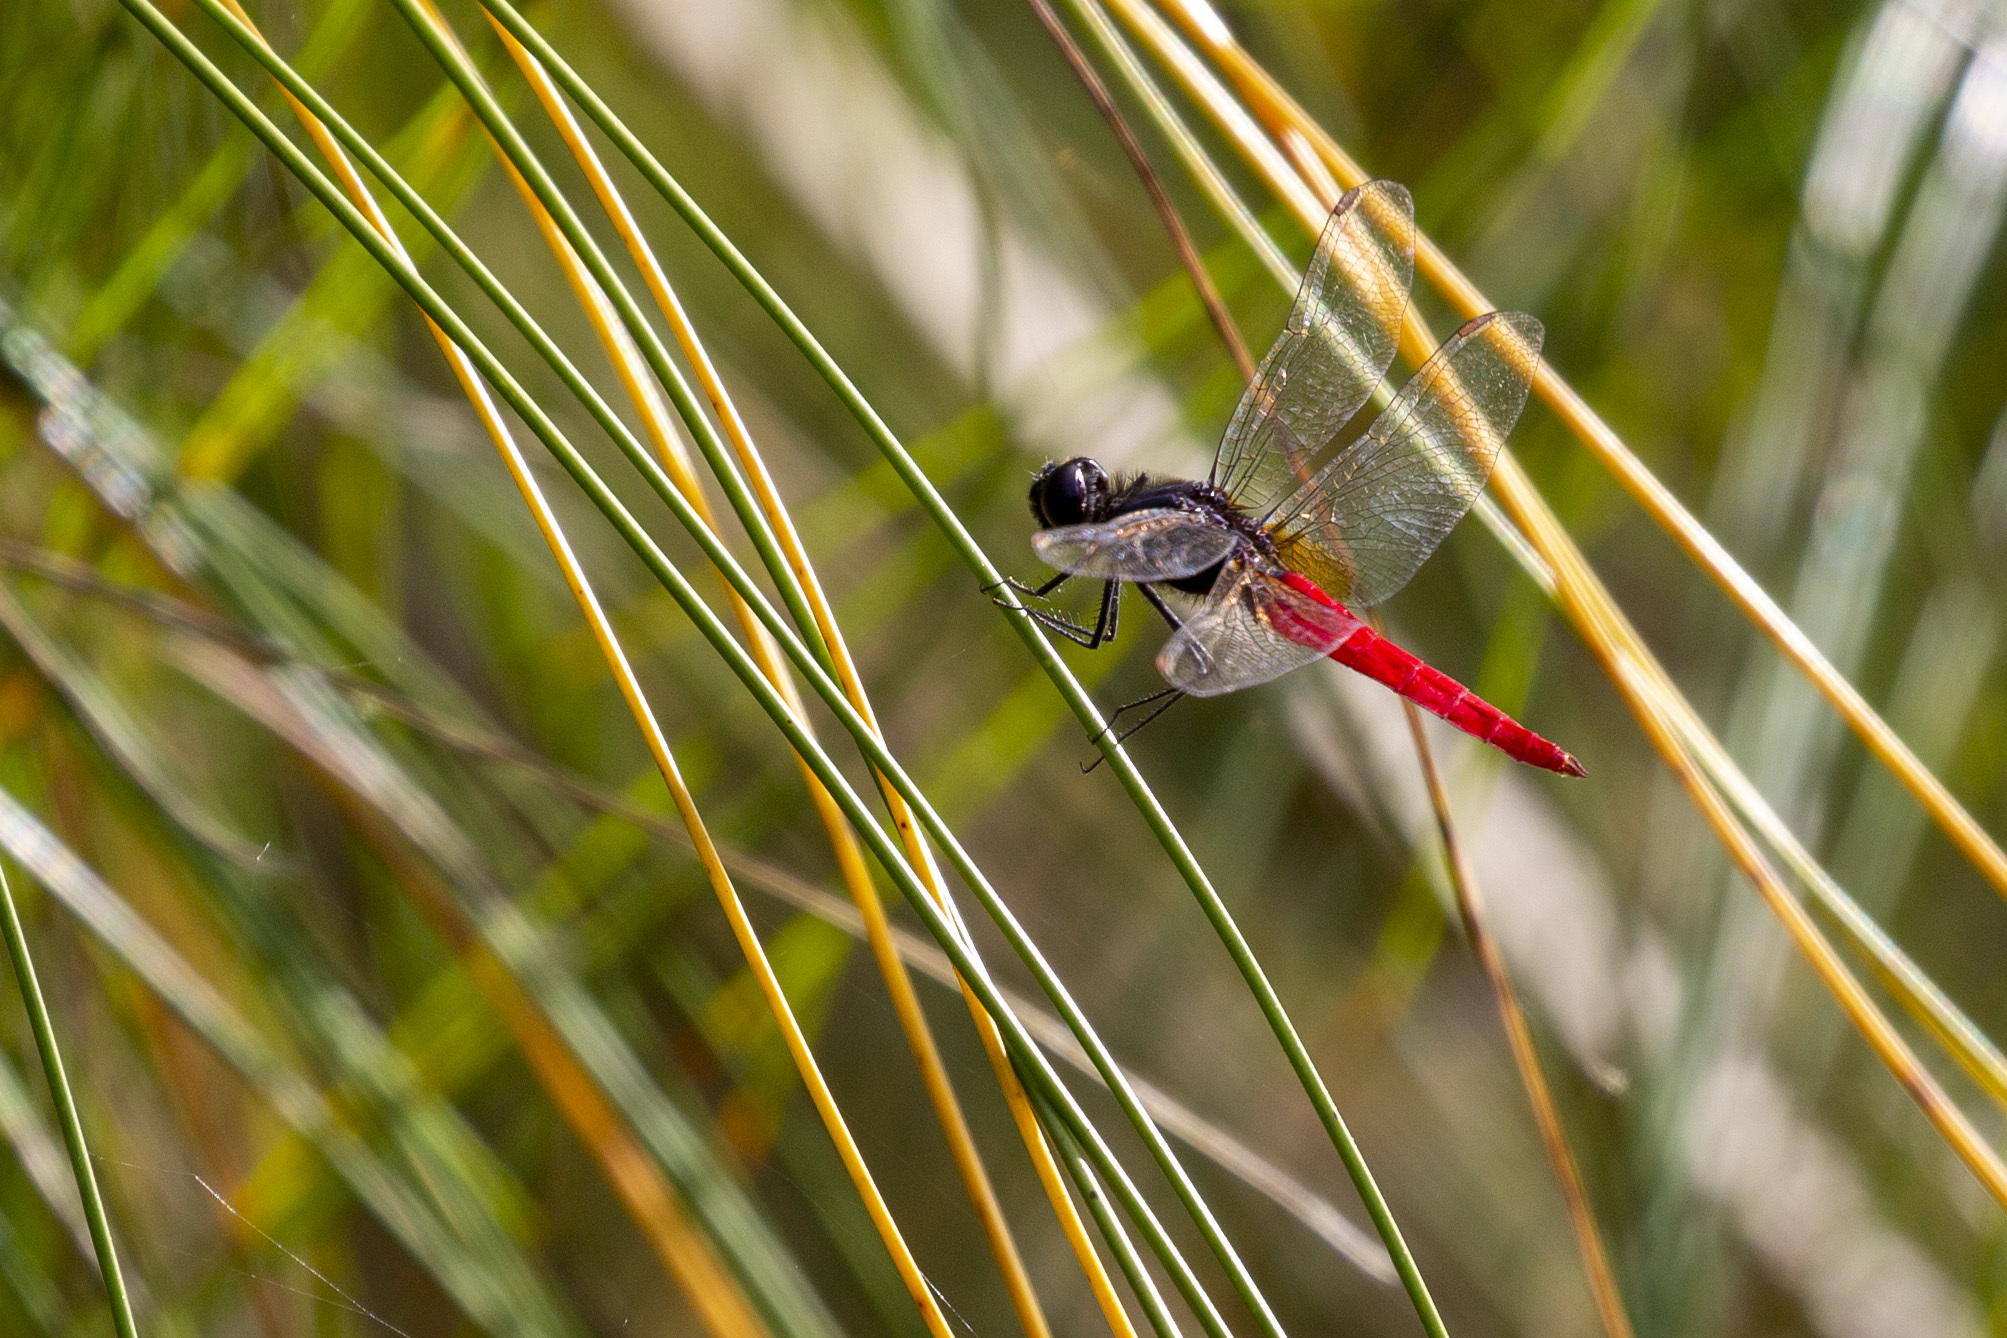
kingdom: Animalia
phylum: Arthropoda
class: Insecta
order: Odonata
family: Libellulidae
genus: Planiplax
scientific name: Planiplax phoenicura
